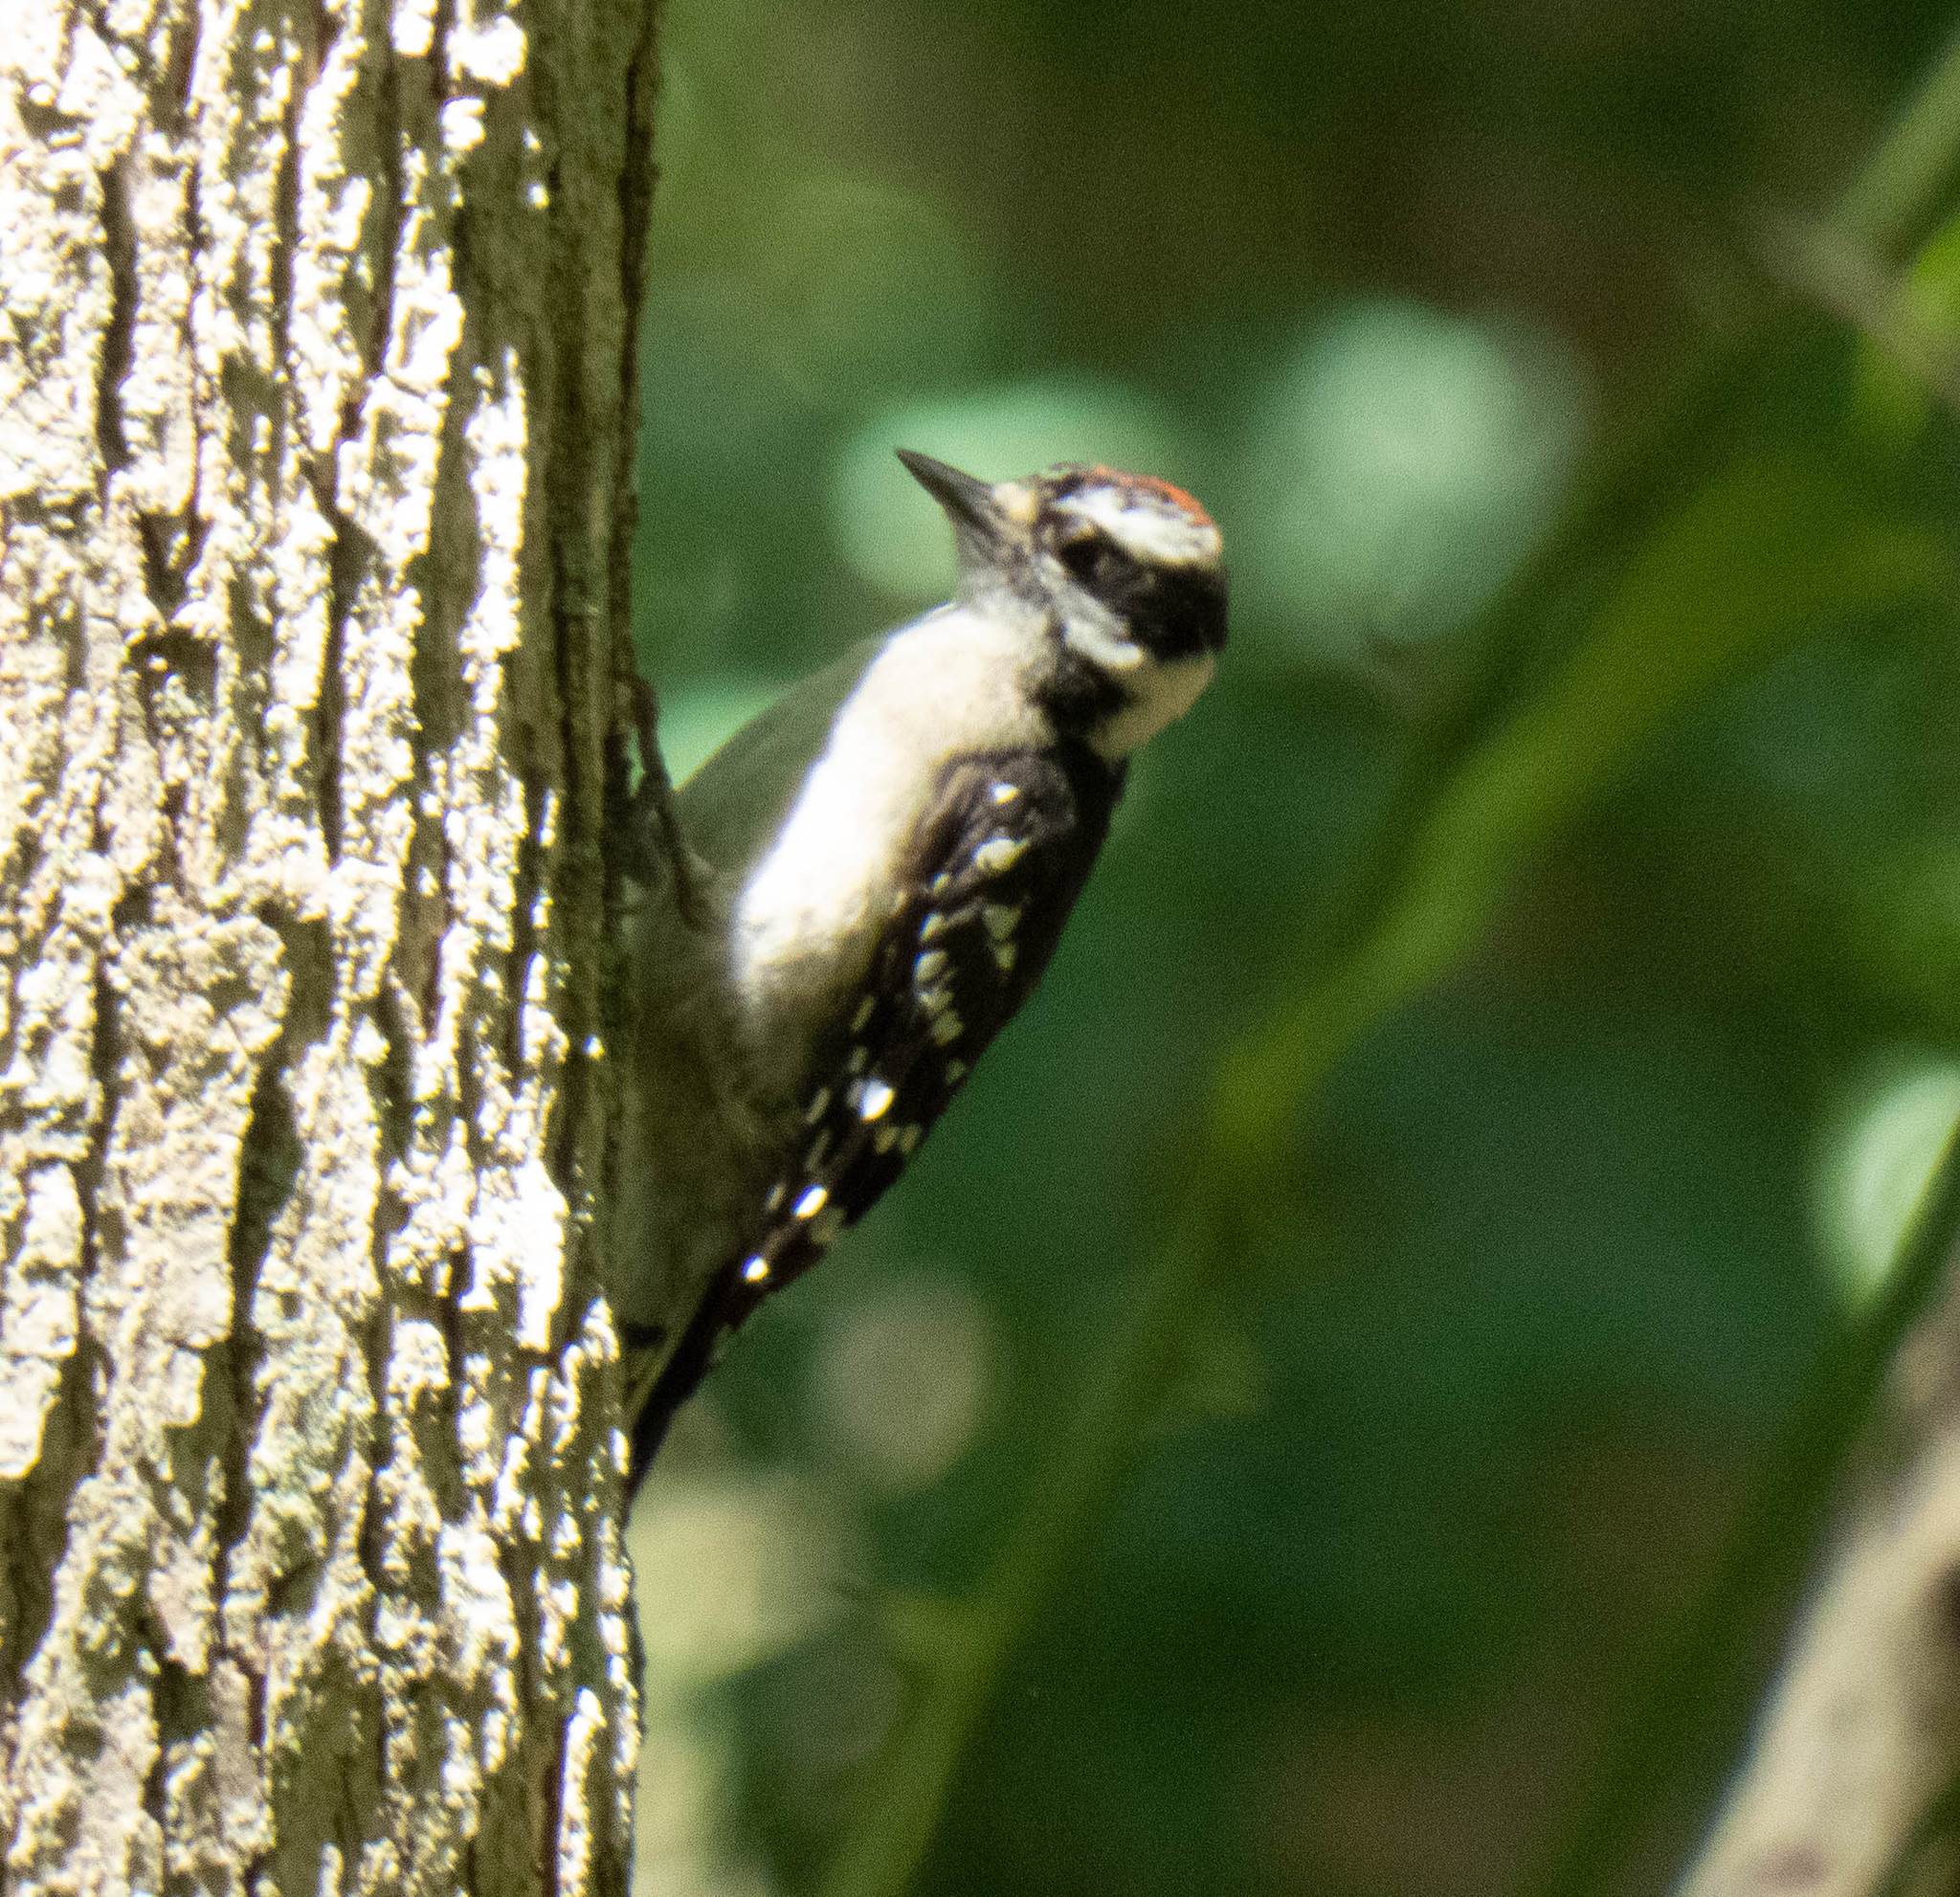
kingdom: Animalia
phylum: Chordata
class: Aves
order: Piciformes
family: Picidae
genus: Dryobates
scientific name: Dryobates pubescens
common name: Downy woodpecker
